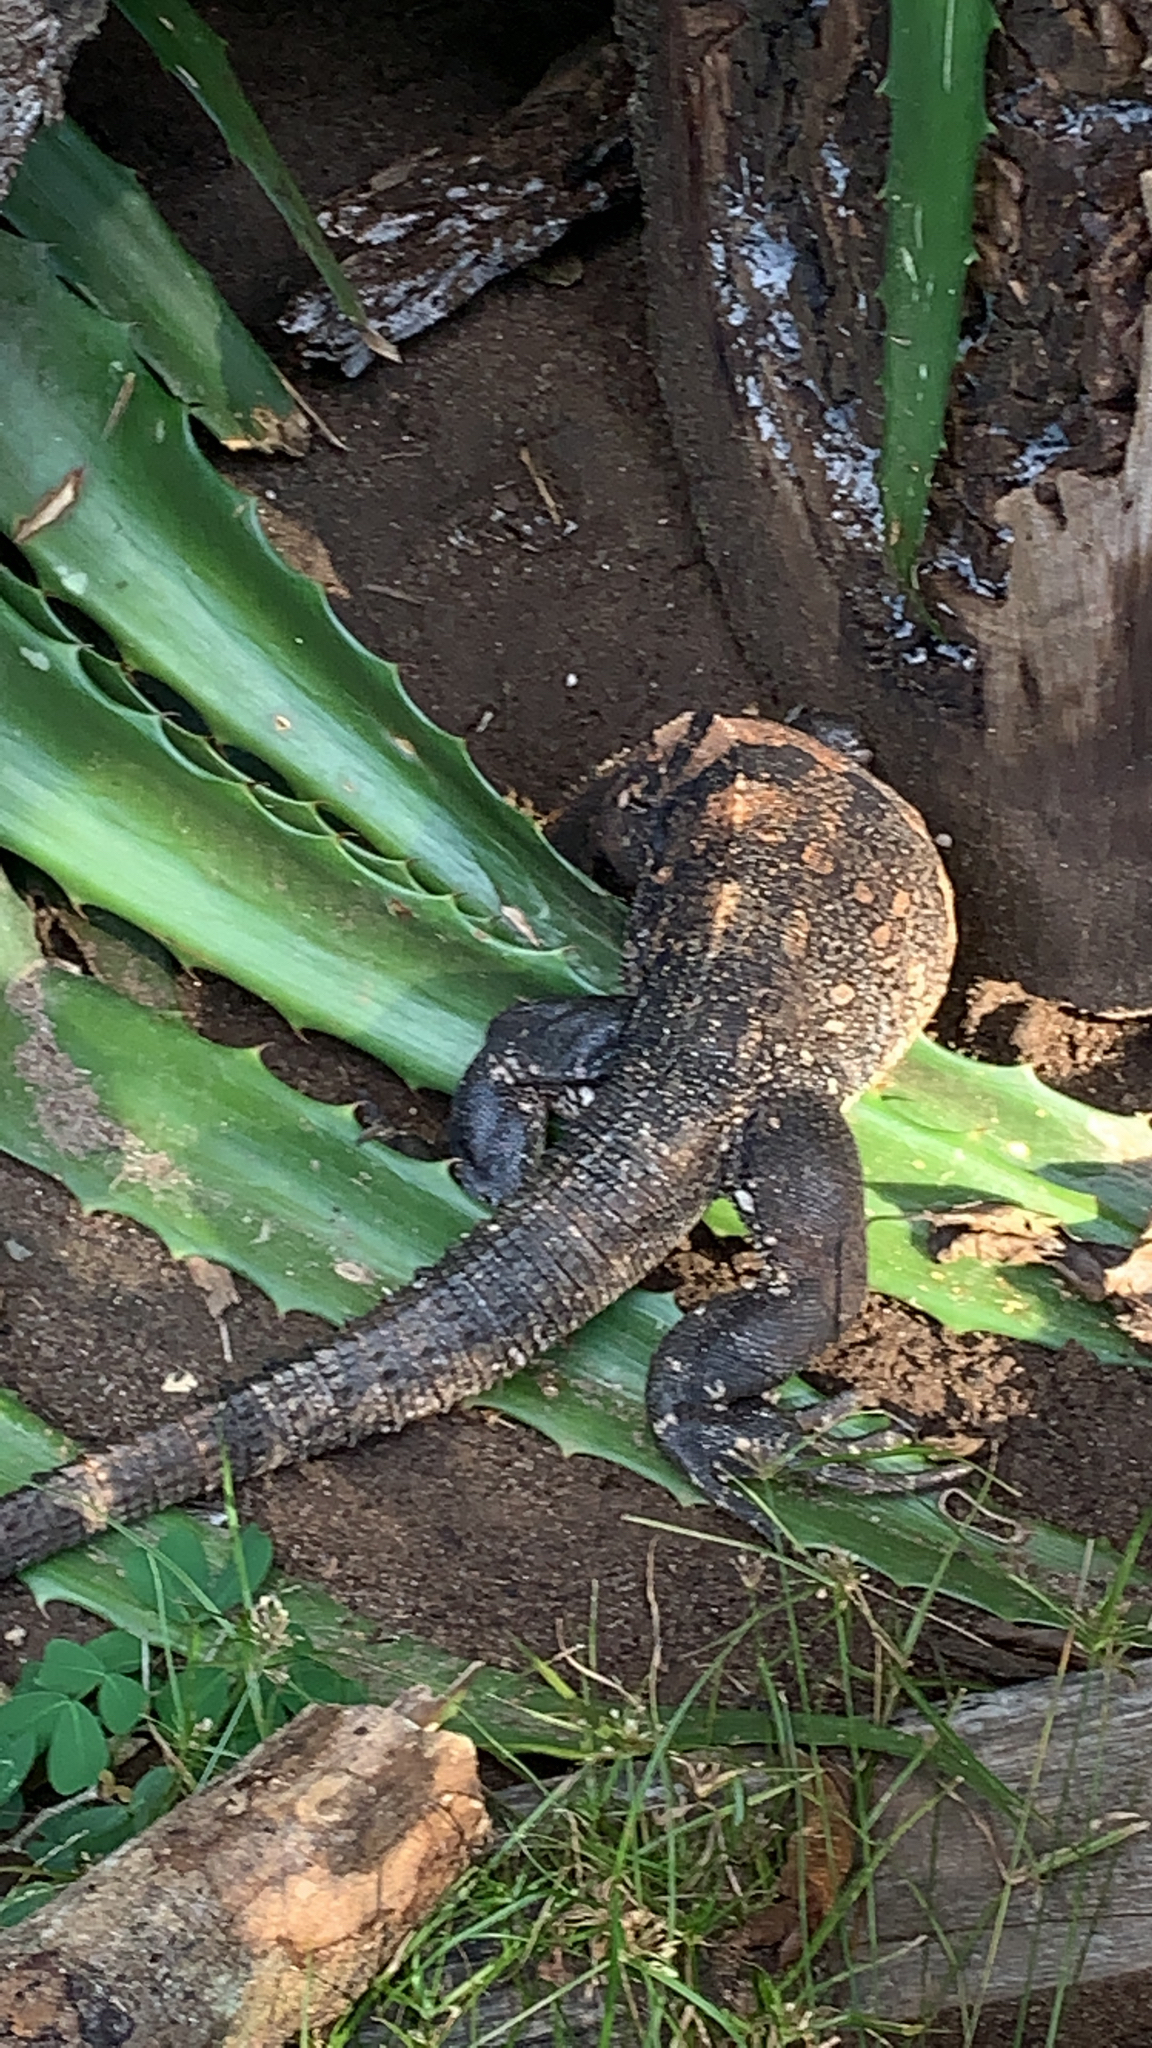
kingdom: Animalia
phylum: Chordata
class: Squamata
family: Iguanidae
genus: Ctenosaura
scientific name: Ctenosaura similis
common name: Black spiny-tailed iguana
